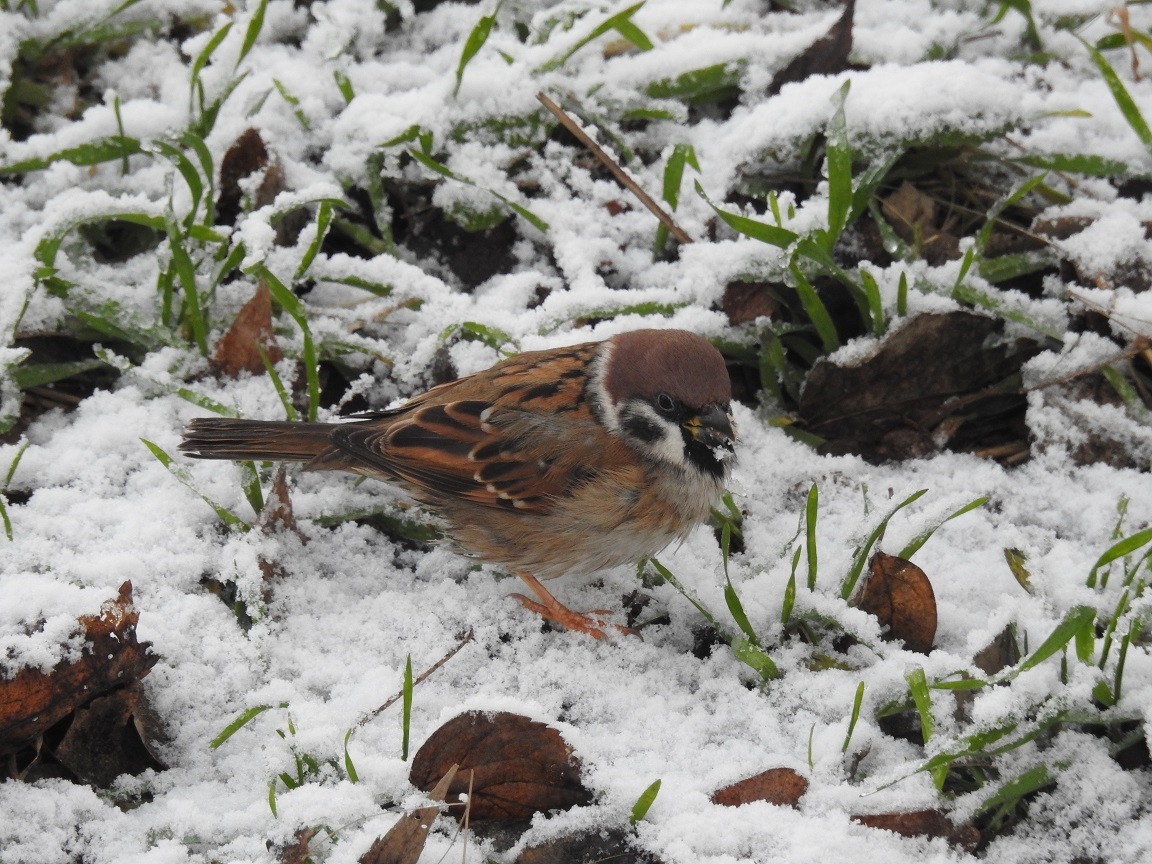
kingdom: Animalia
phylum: Chordata
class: Aves
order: Passeriformes
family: Passeridae
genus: Passer
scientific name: Passer montanus
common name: Eurasian tree sparrow
